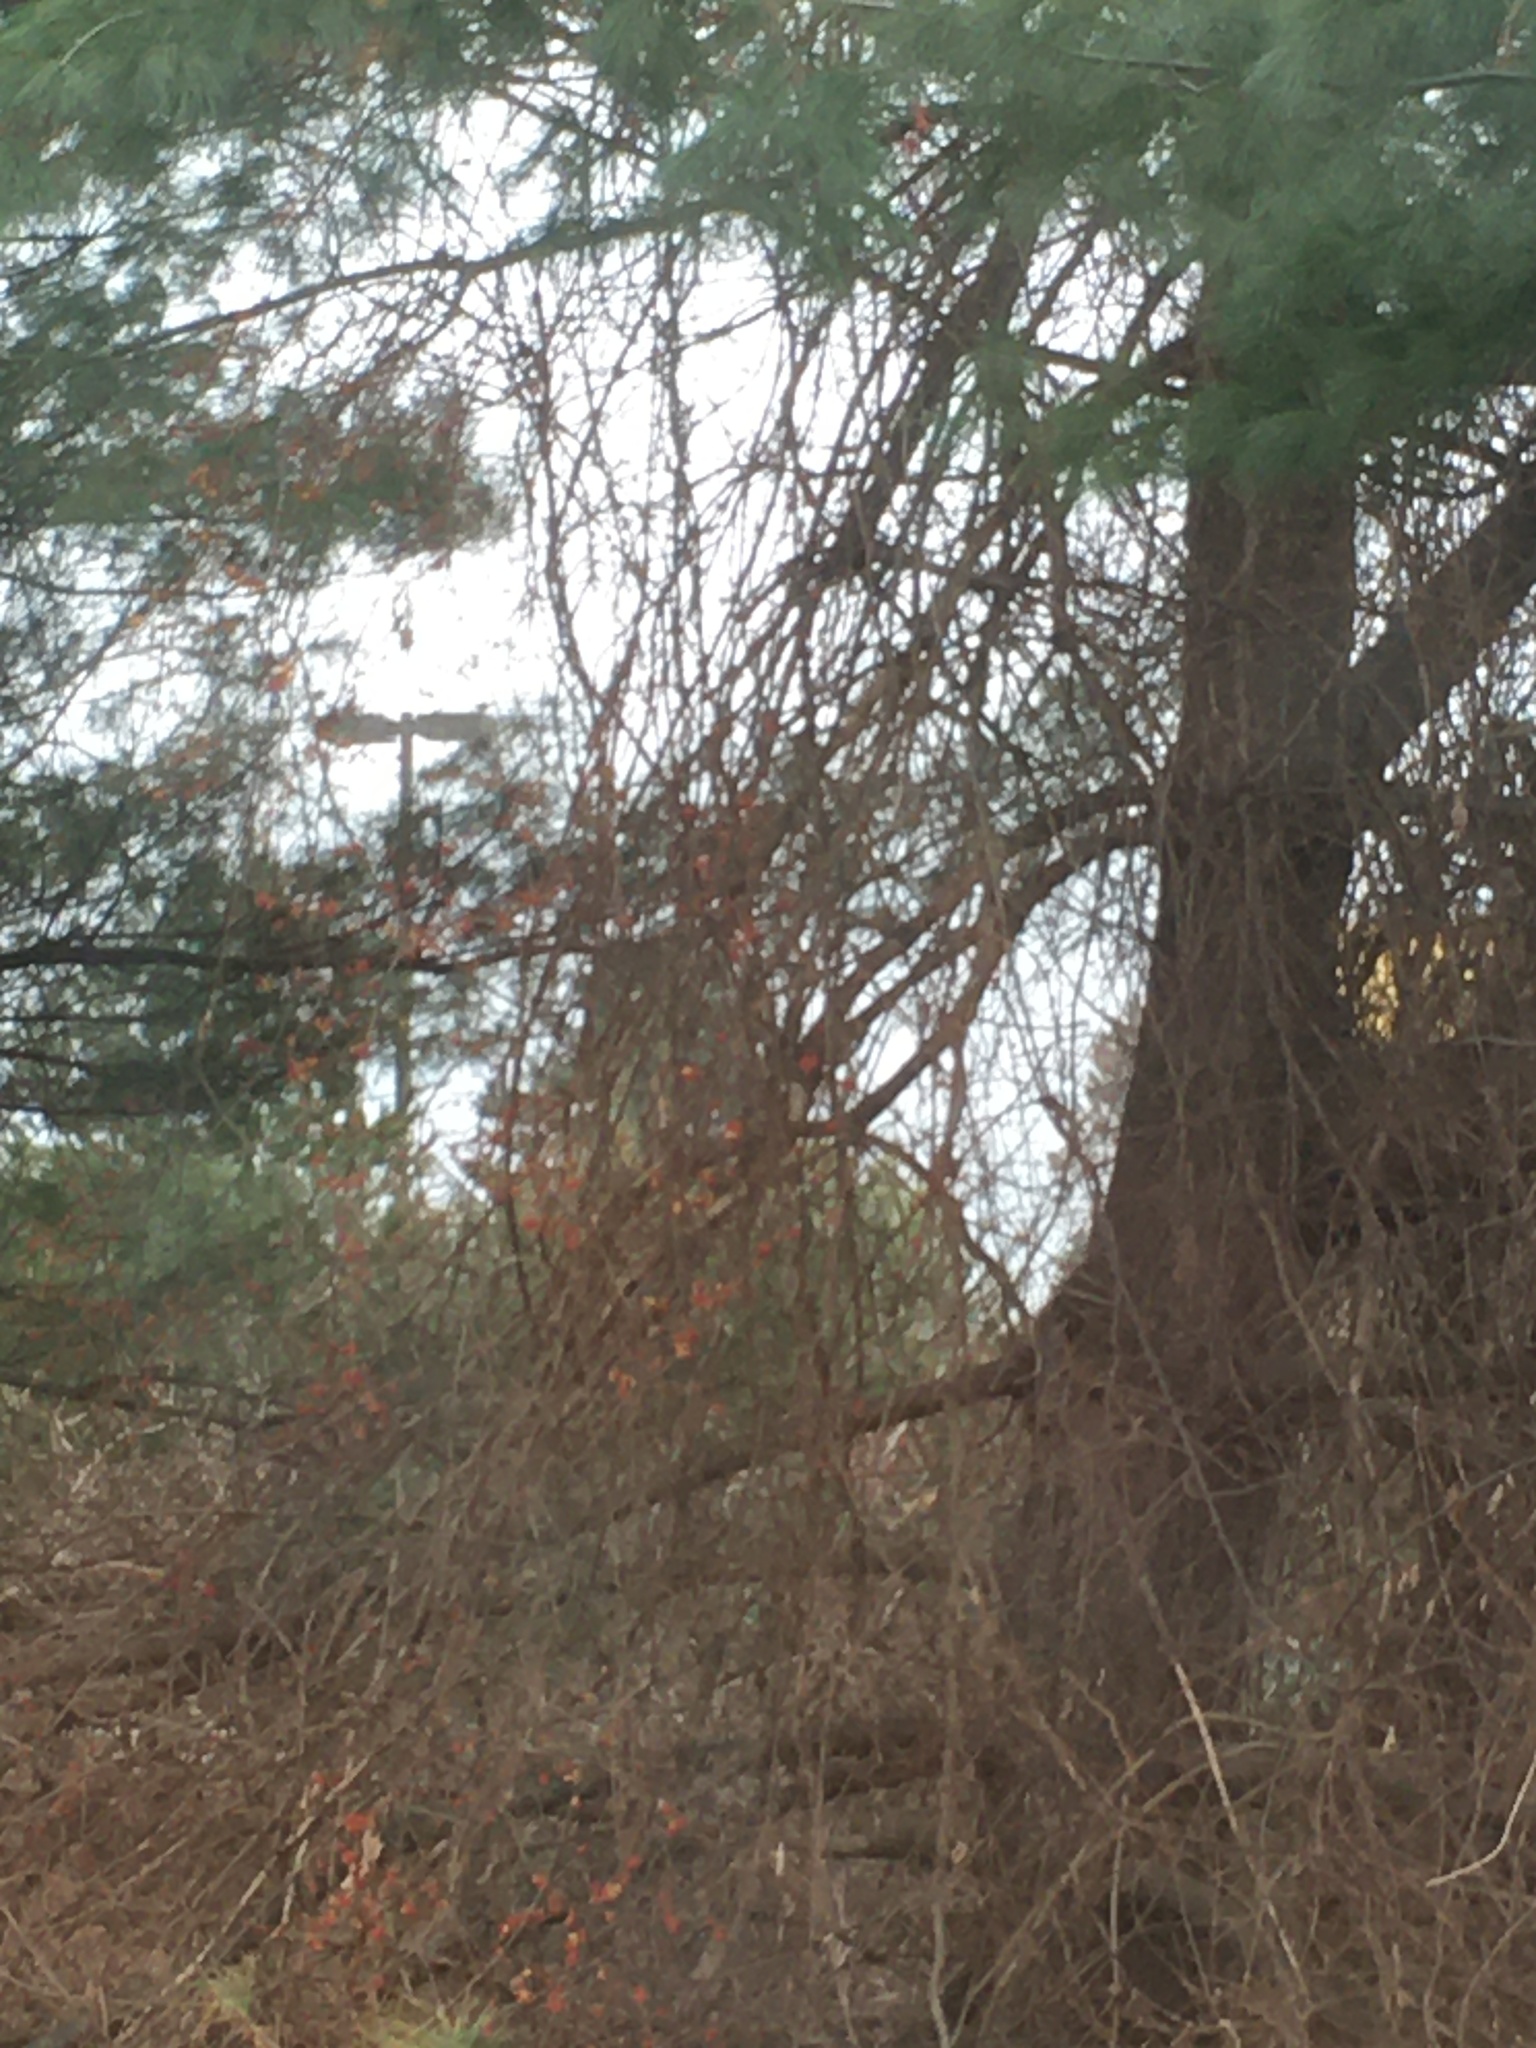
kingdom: Plantae
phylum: Tracheophyta
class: Magnoliopsida
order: Celastrales
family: Celastraceae
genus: Celastrus
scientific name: Celastrus orbiculatus
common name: Oriental bittersweet
